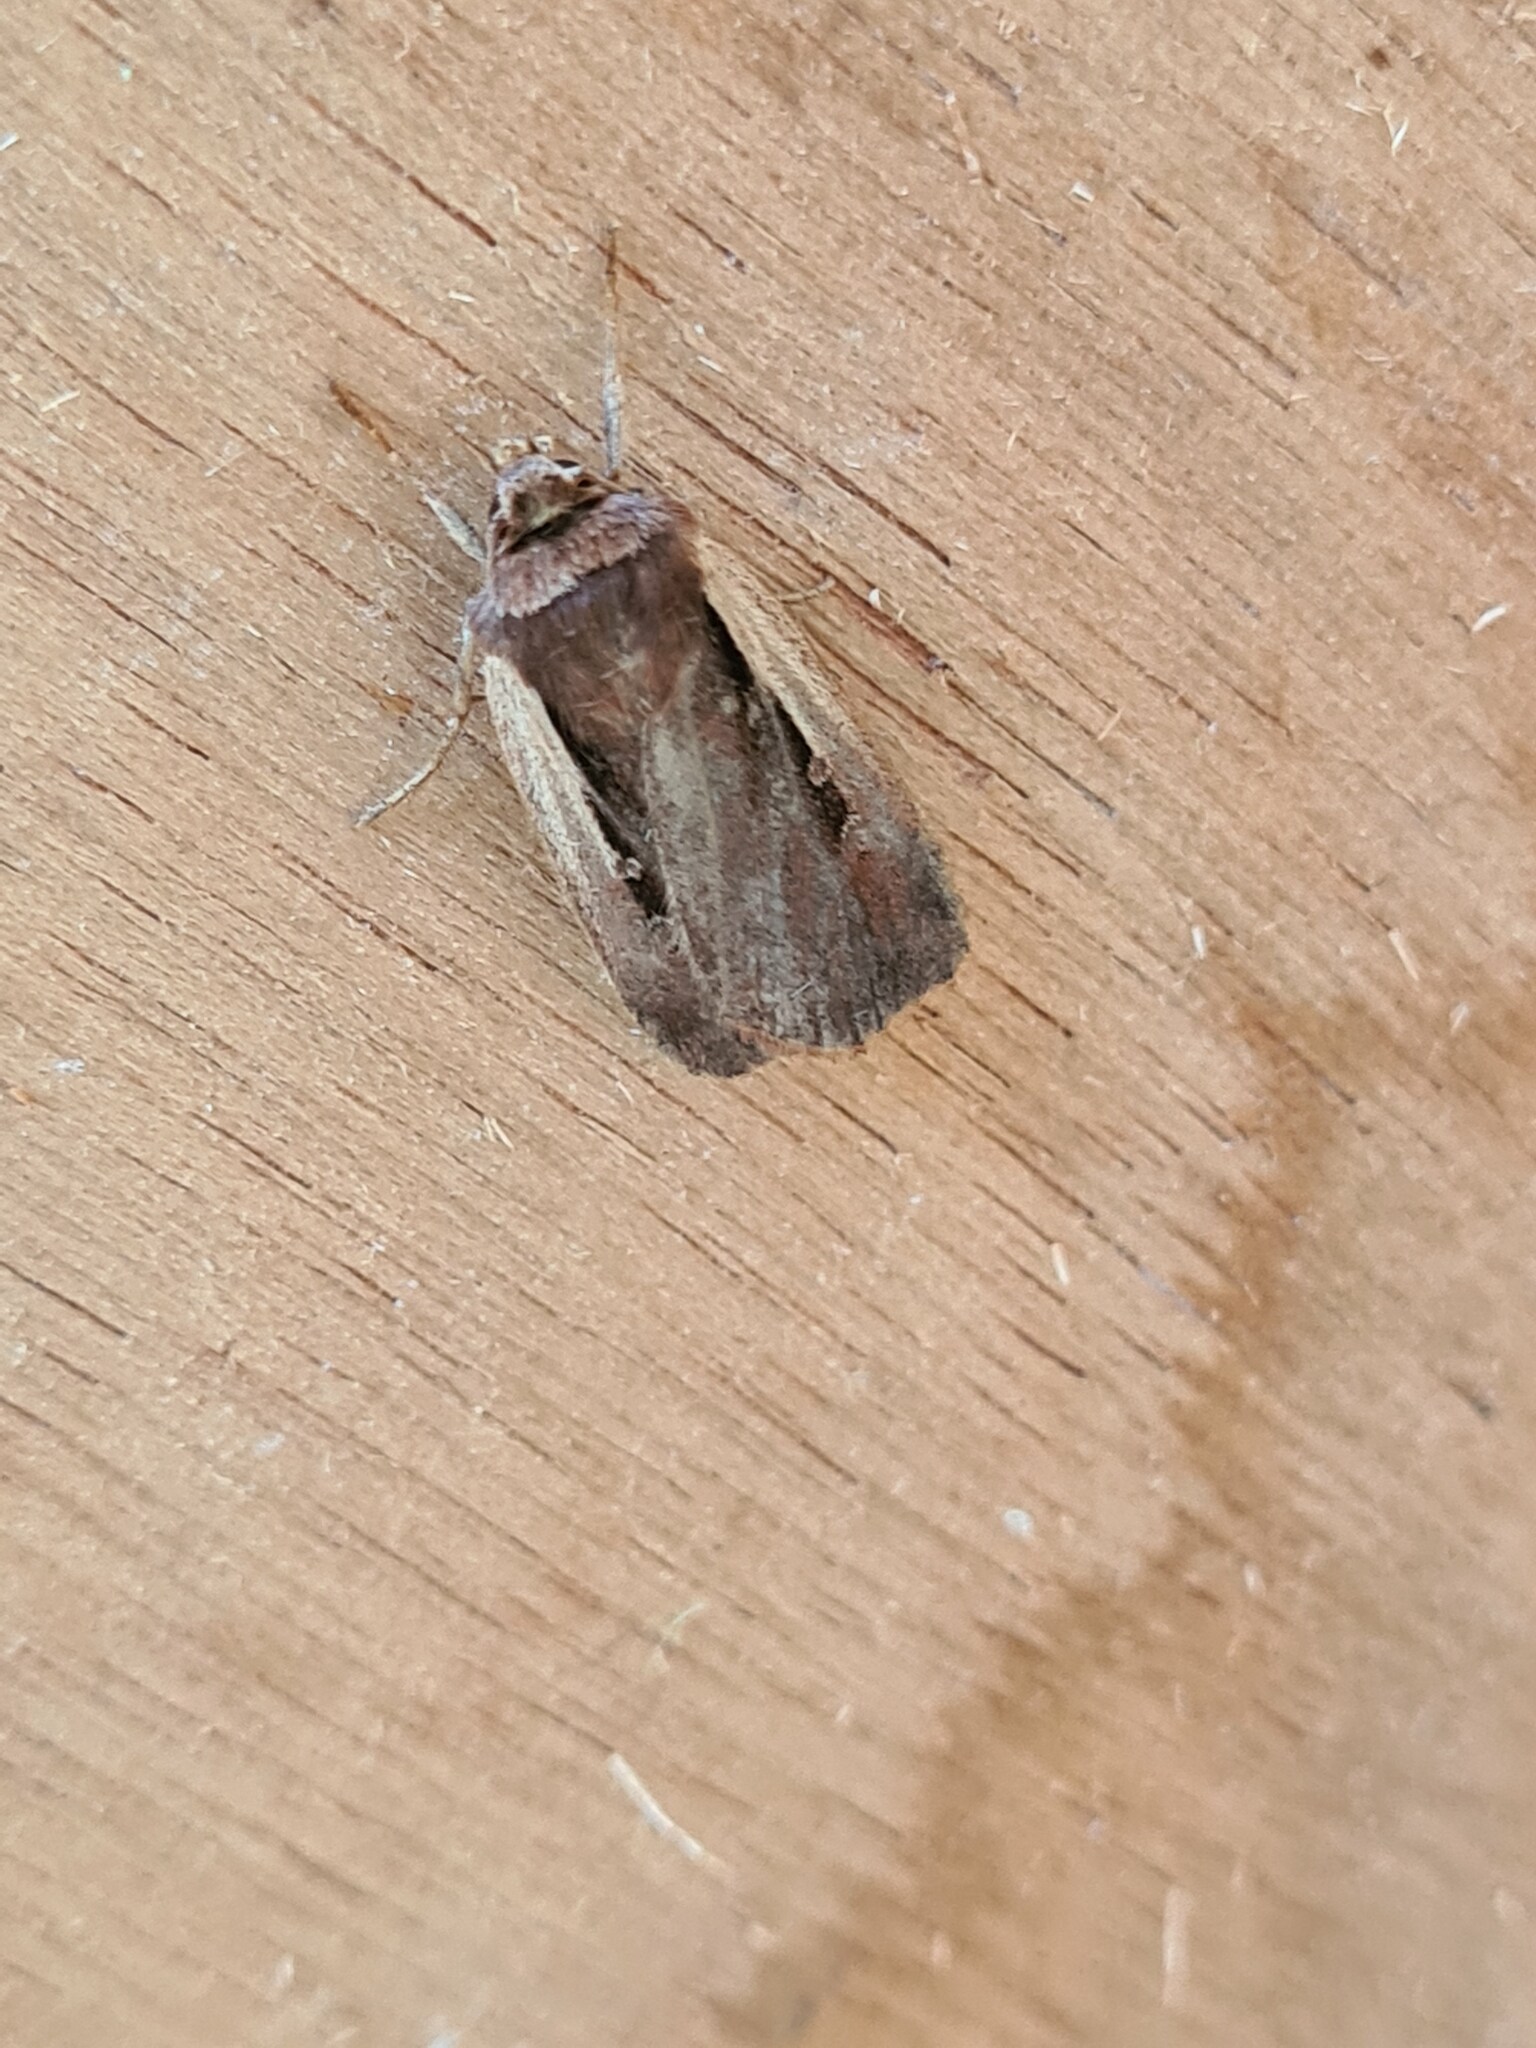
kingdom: Animalia
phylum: Arthropoda
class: Insecta
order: Lepidoptera
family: Noctuidae
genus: Ochropleura
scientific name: Ochropleura plecta
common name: Flame shoulder
